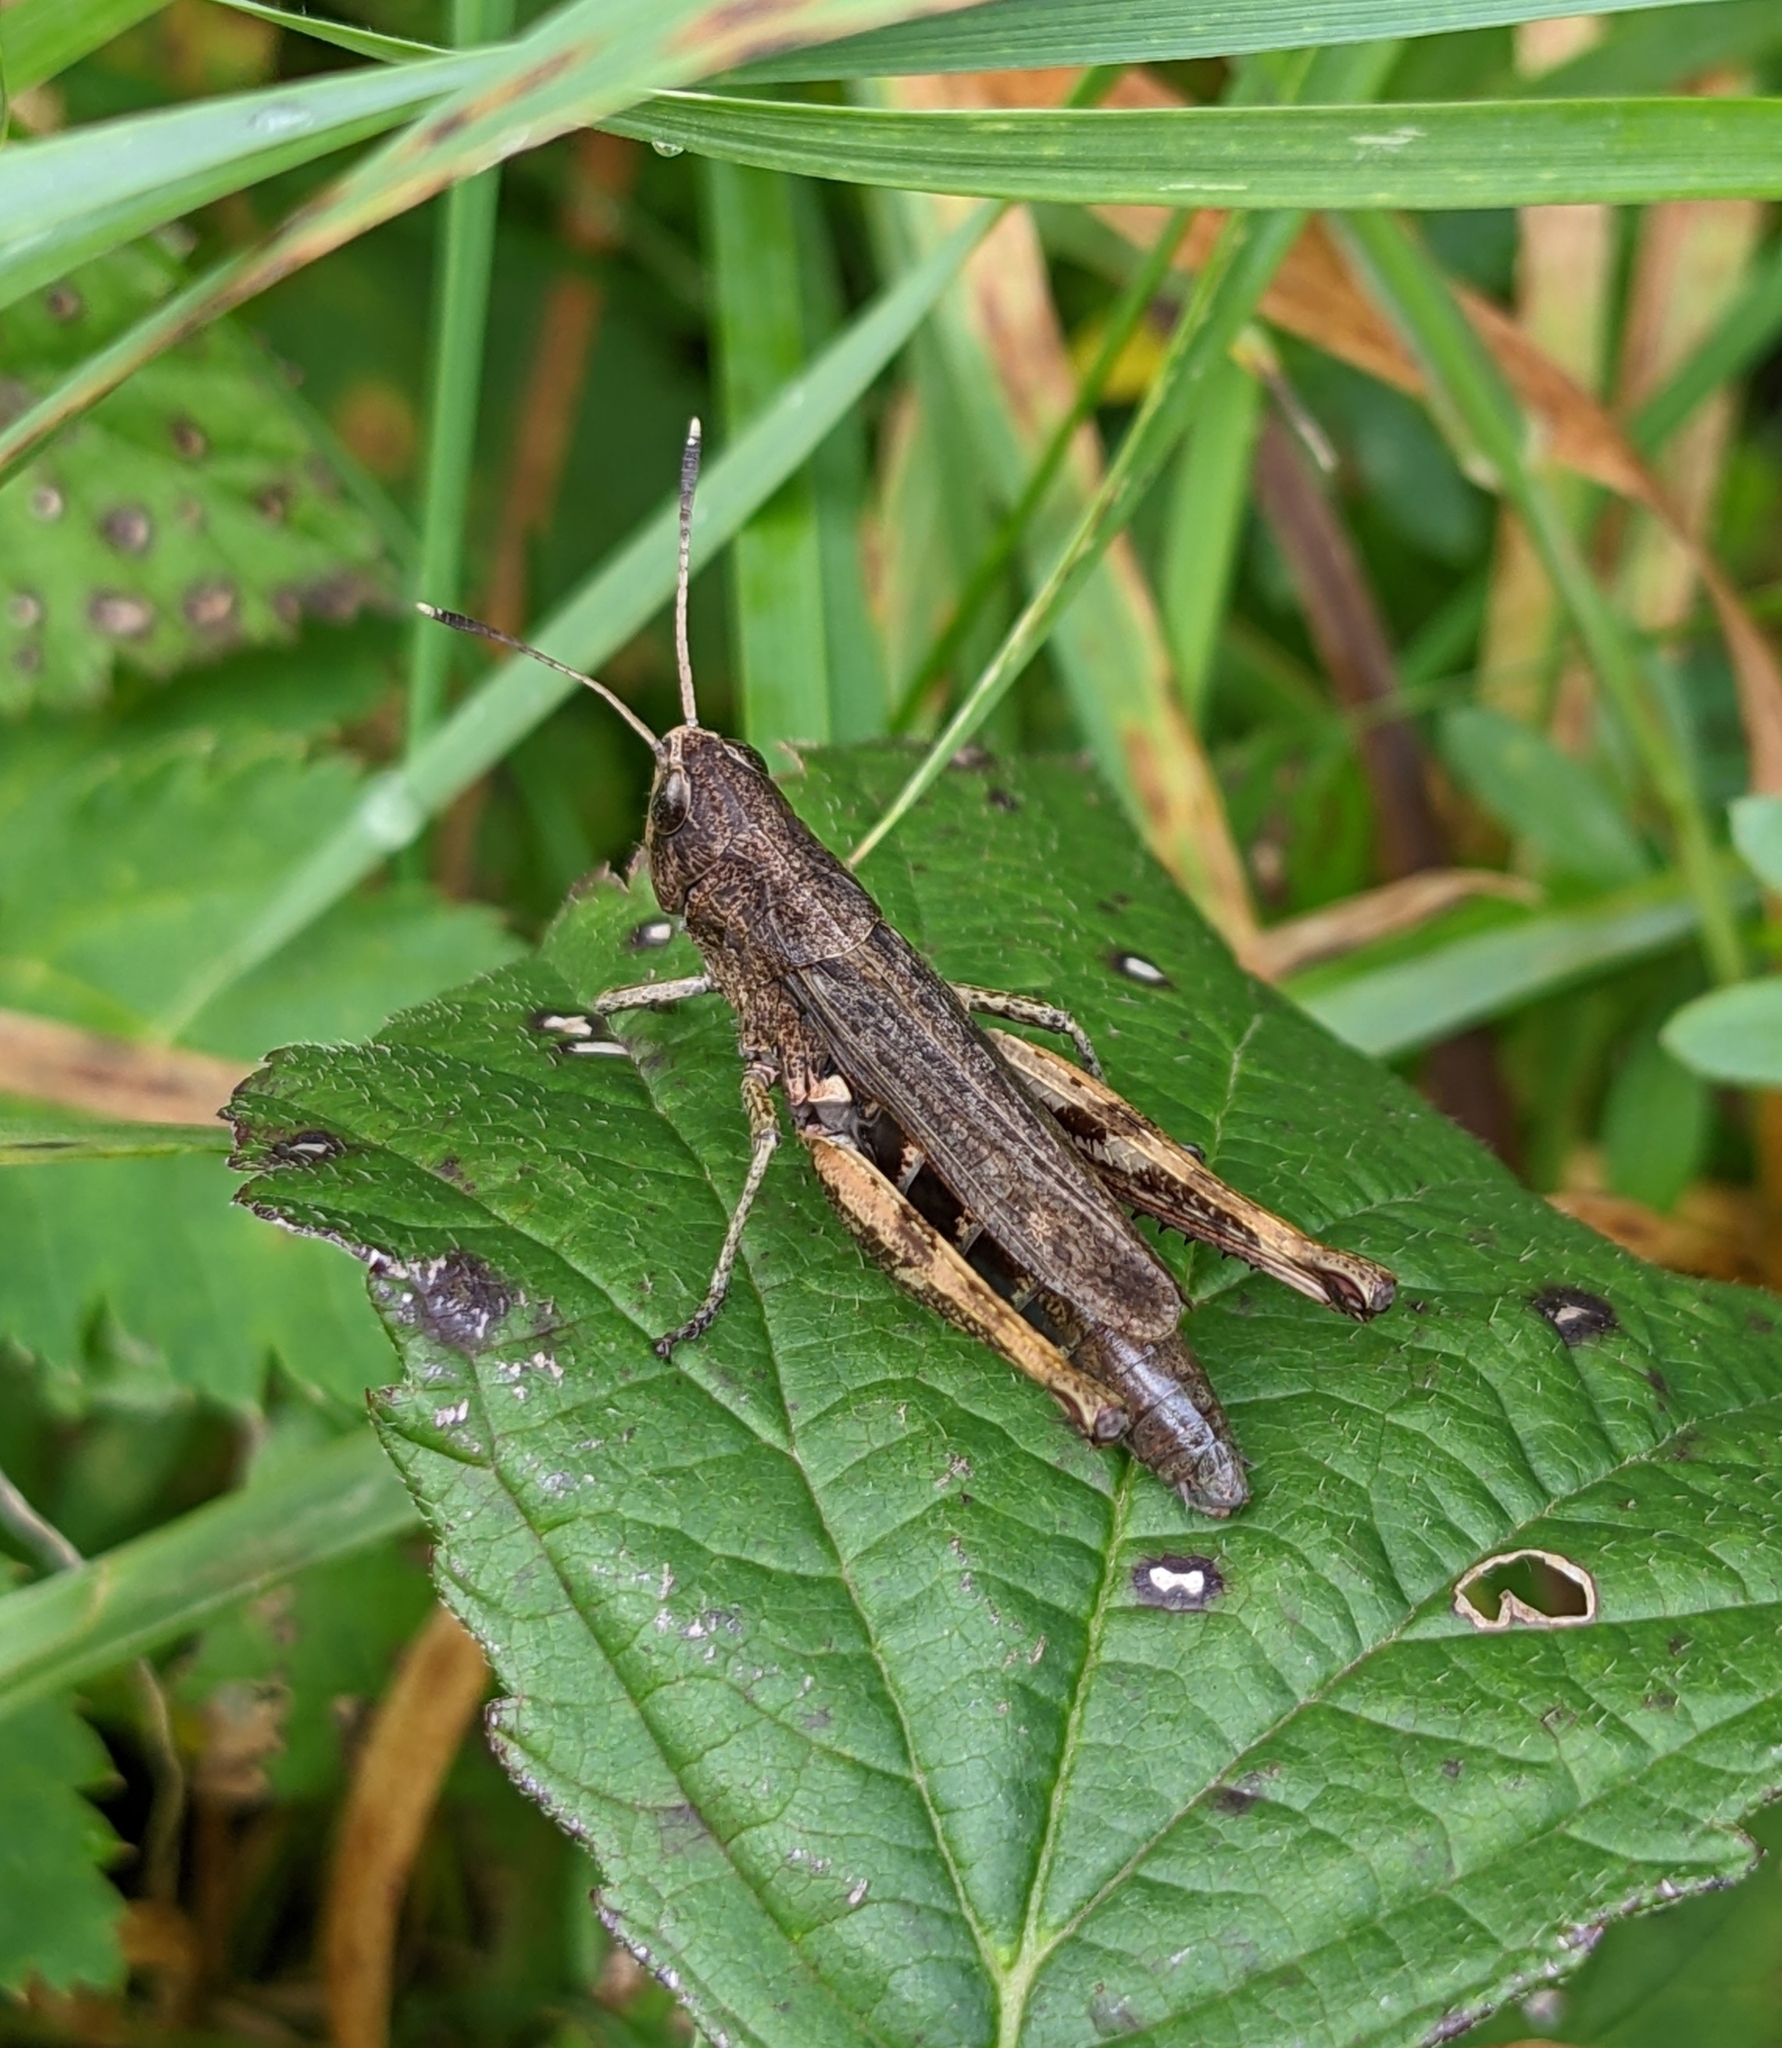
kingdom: Animalia
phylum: Arthropoda
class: Insecta
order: Orthoptera
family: Acrididae
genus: Gomphocerippus
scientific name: Gomphocerippus rufus
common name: Rufous grasshopper
